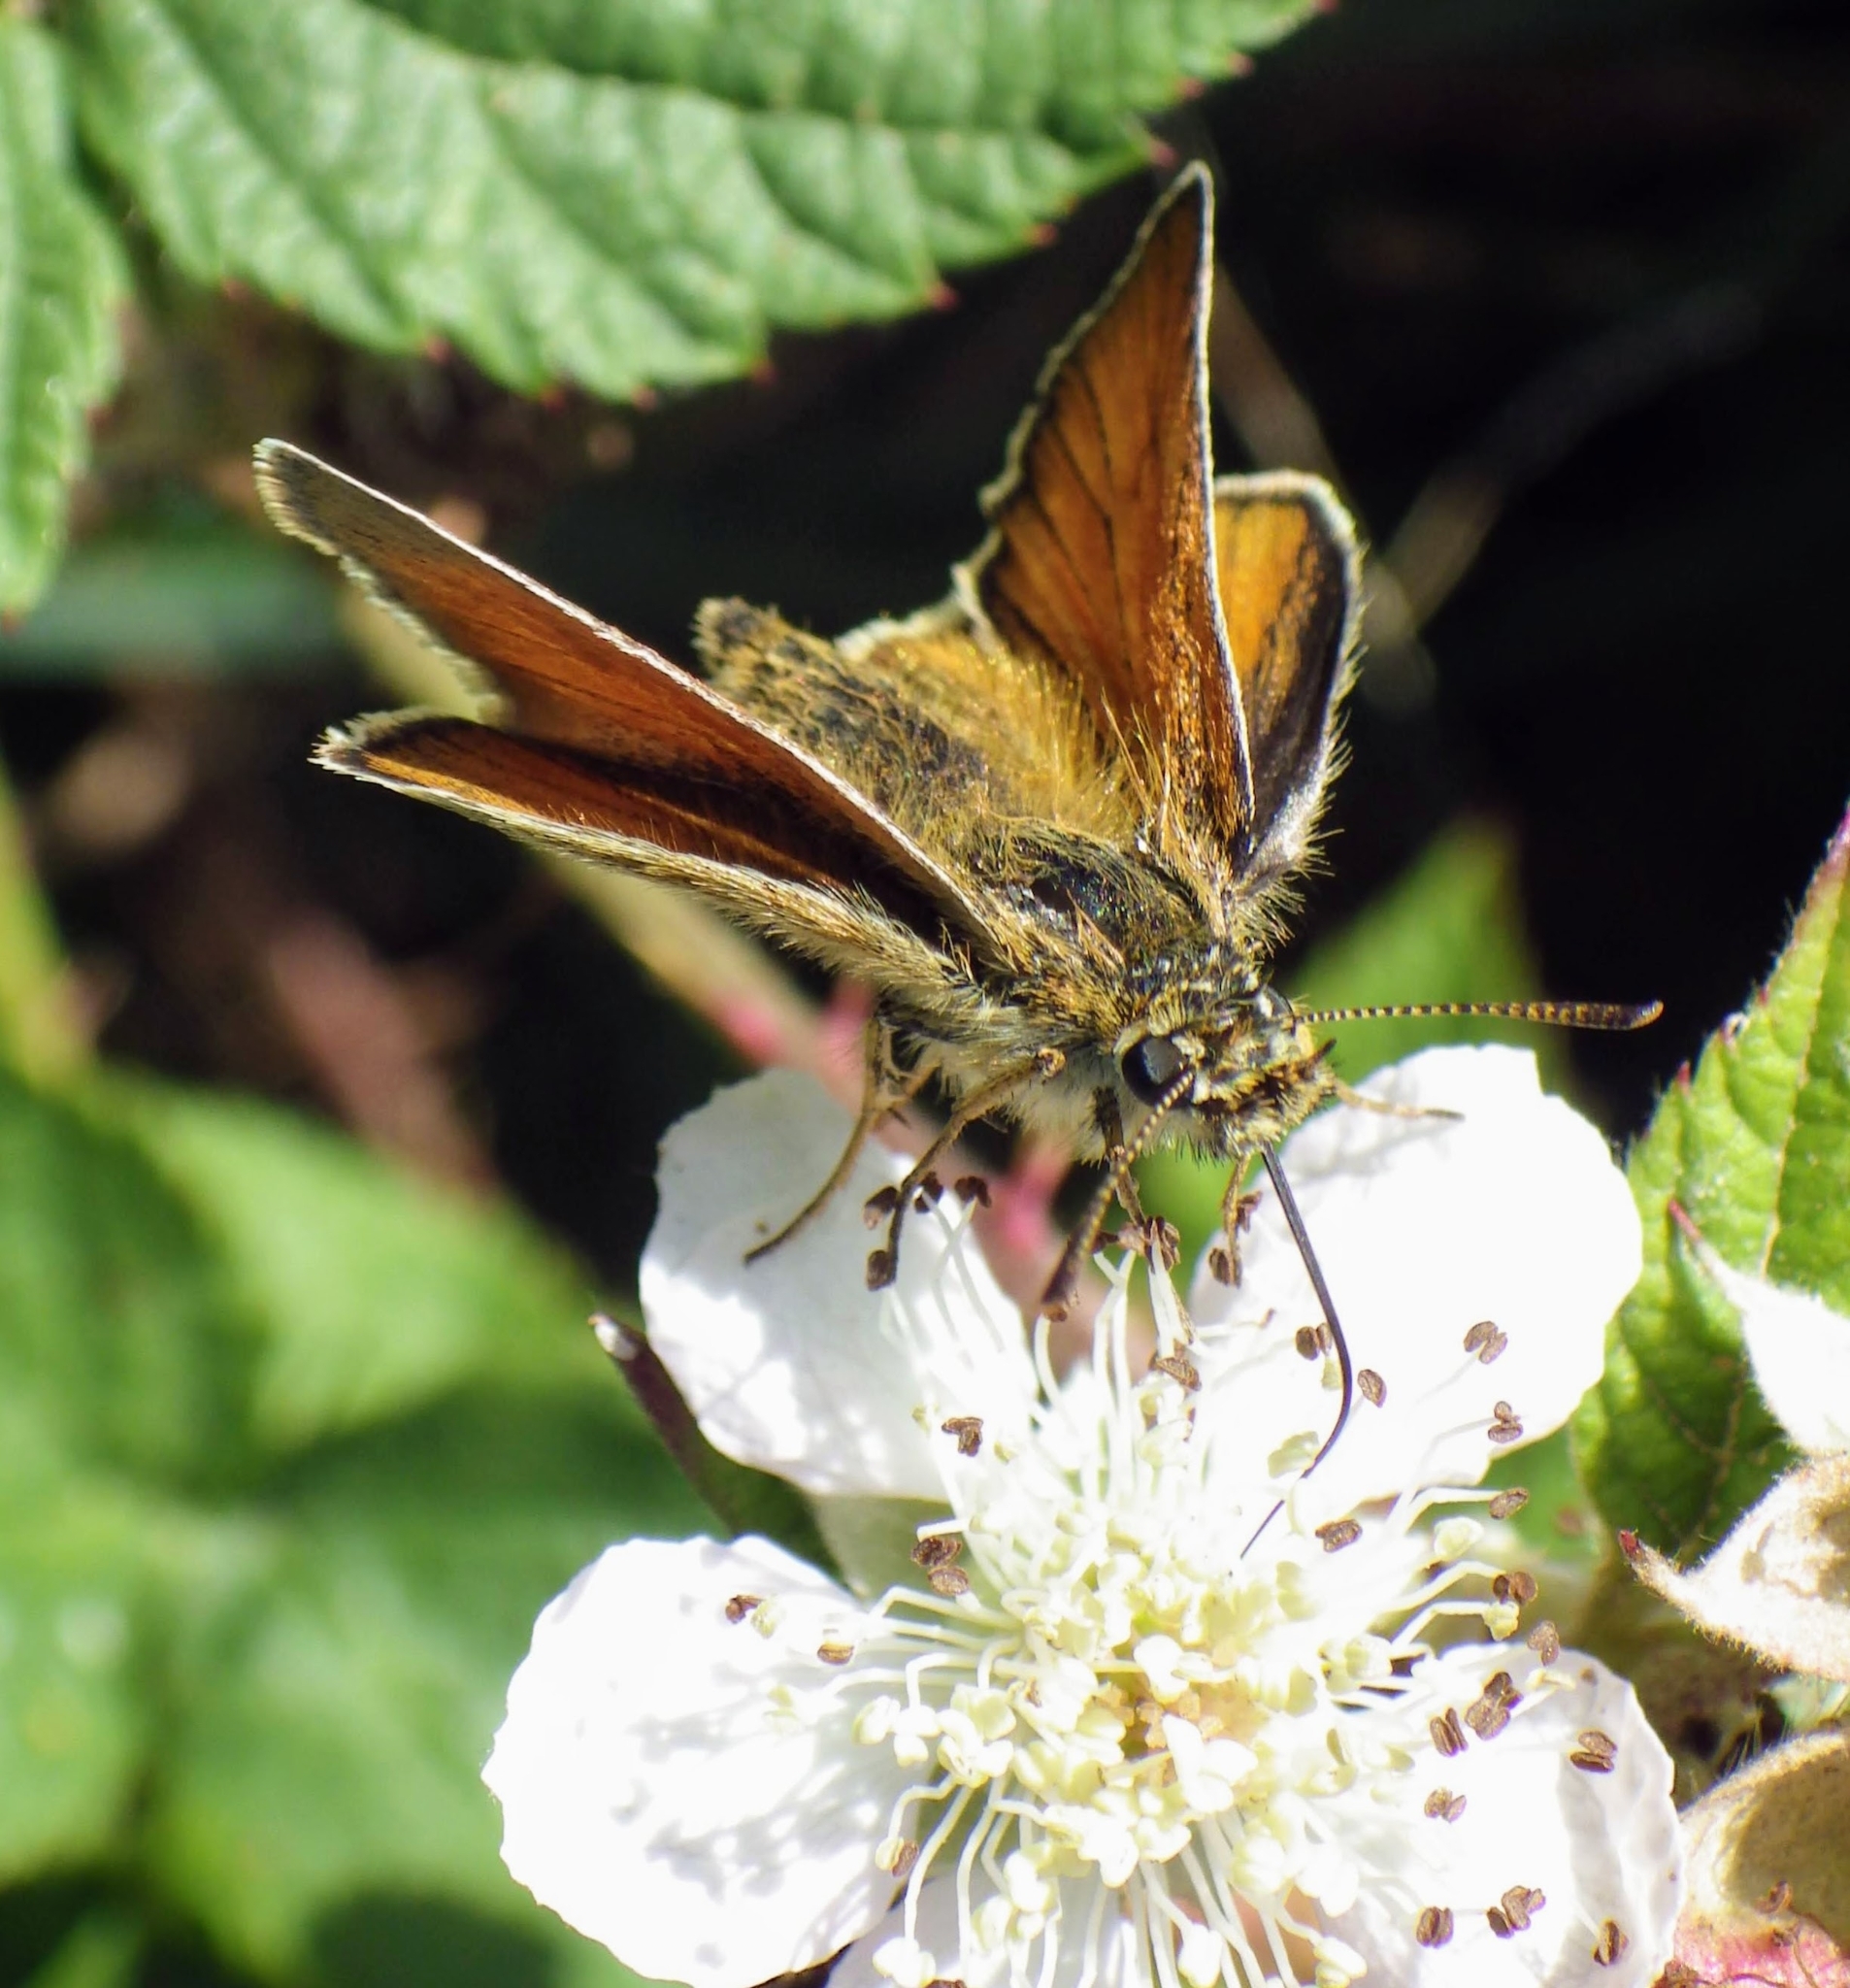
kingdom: Animalia
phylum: Arthropoda
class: Insecta
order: Lepidoptera
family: Hesperiidae
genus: Thymelicus
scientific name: Thymelicus sylvestris
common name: Small skipper
